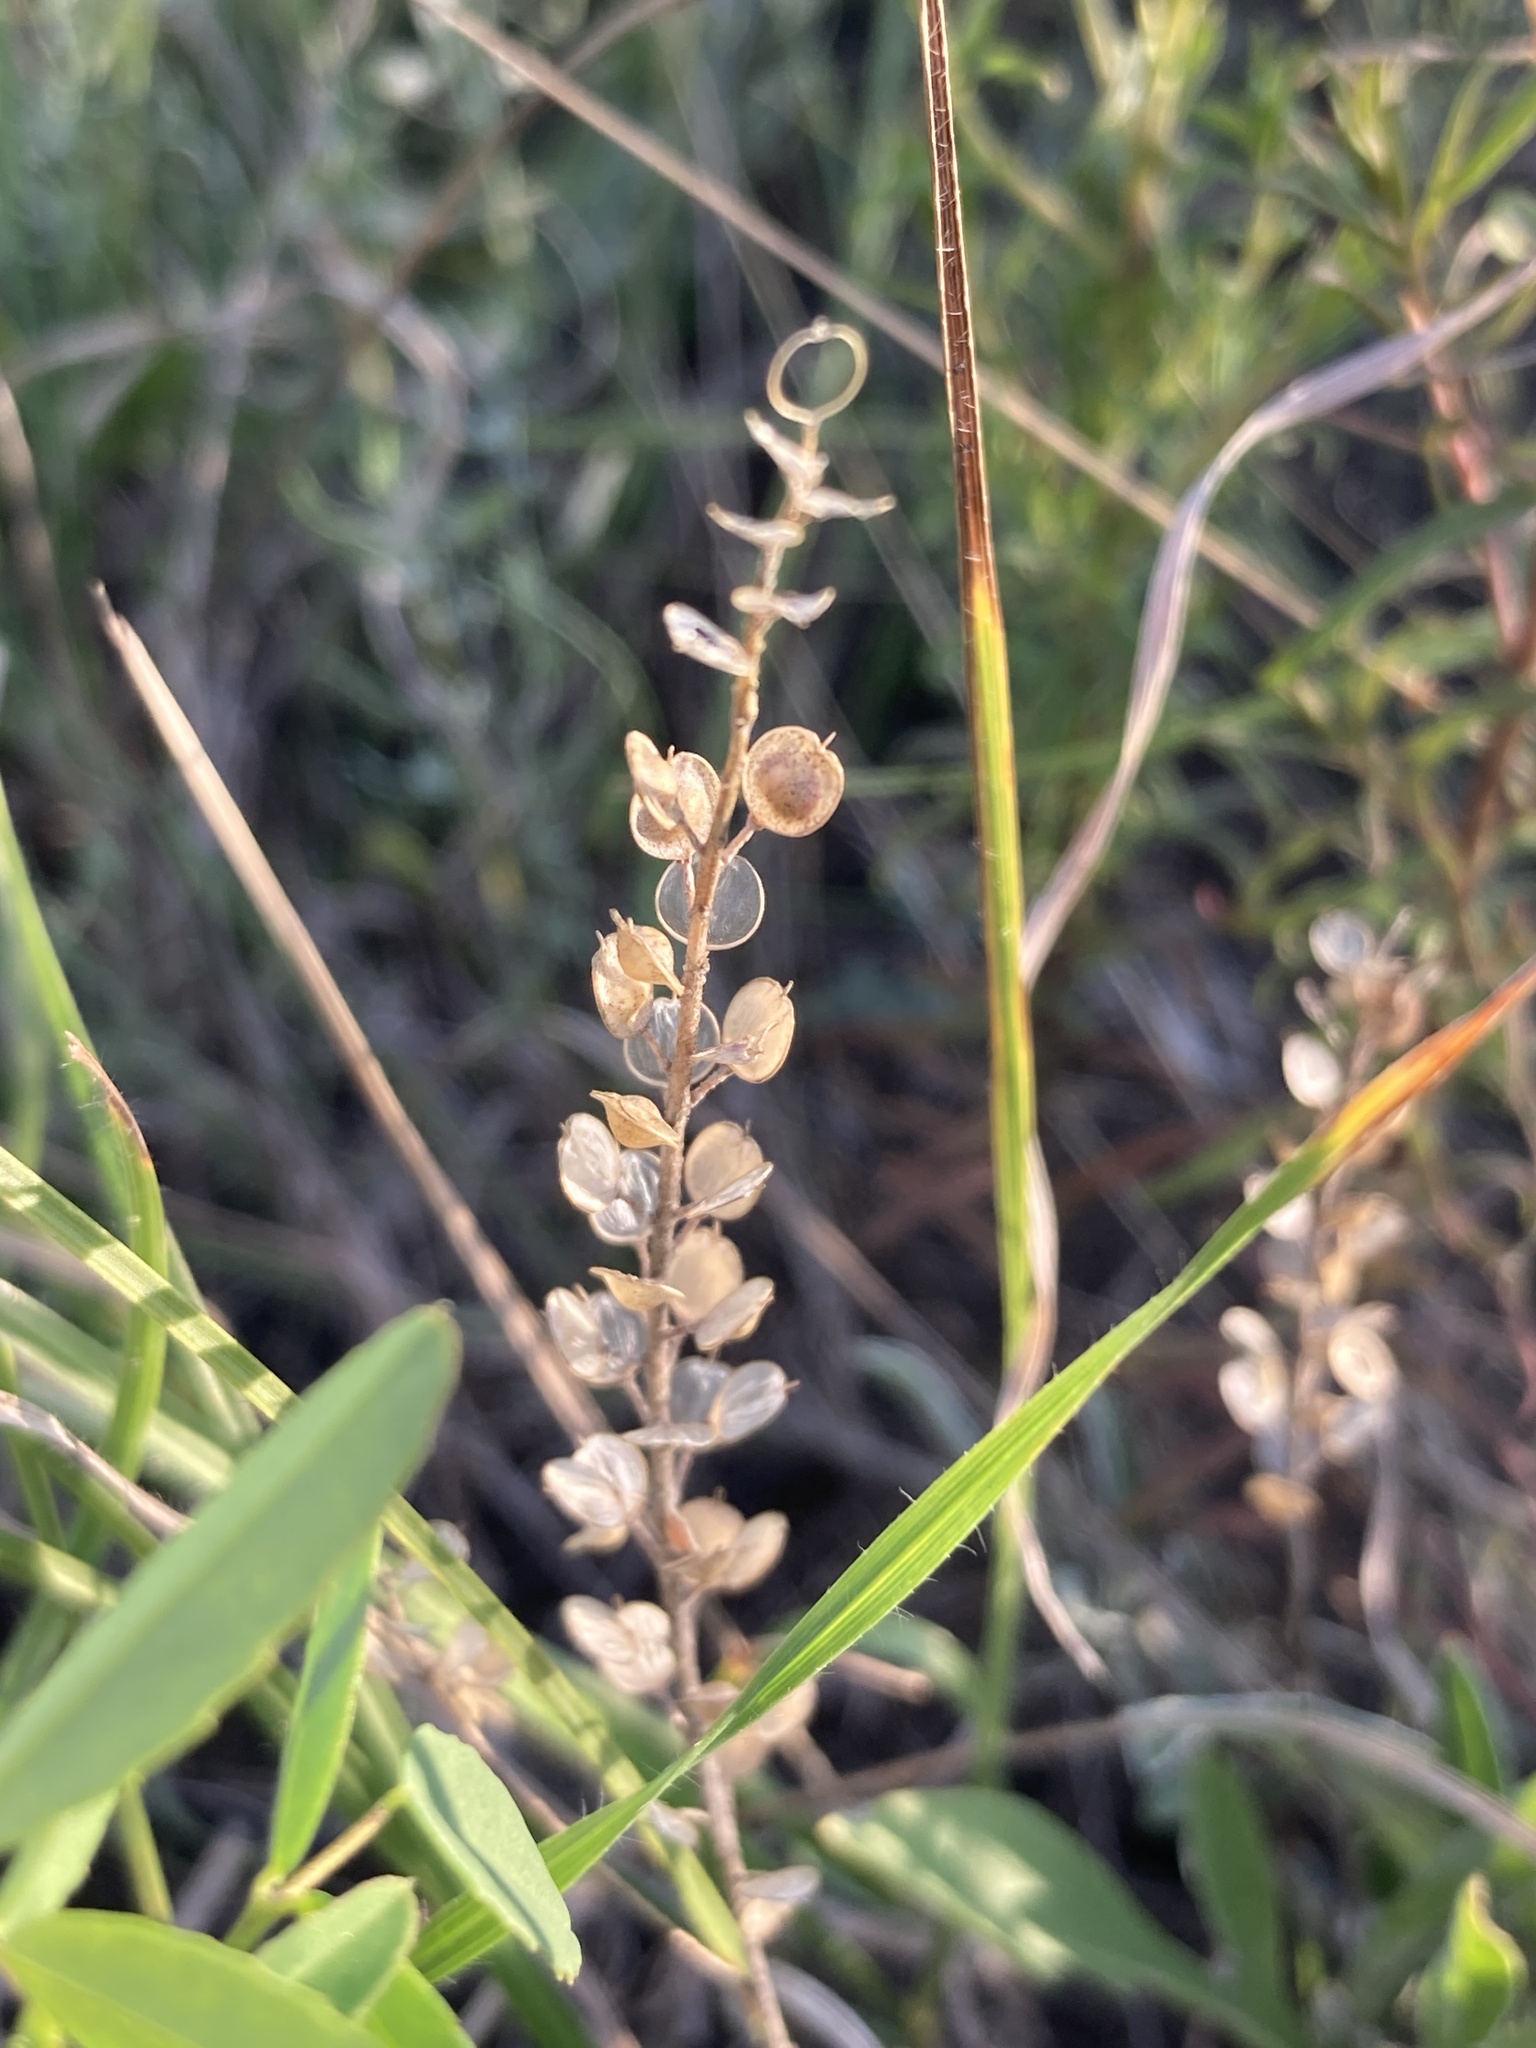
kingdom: Plantae
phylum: Tracheophyta
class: Magnoliopsida
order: Brassicales
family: Brassicaceae
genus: Alyssum
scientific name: Alyssum turkestanicum
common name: Desert alyssum
